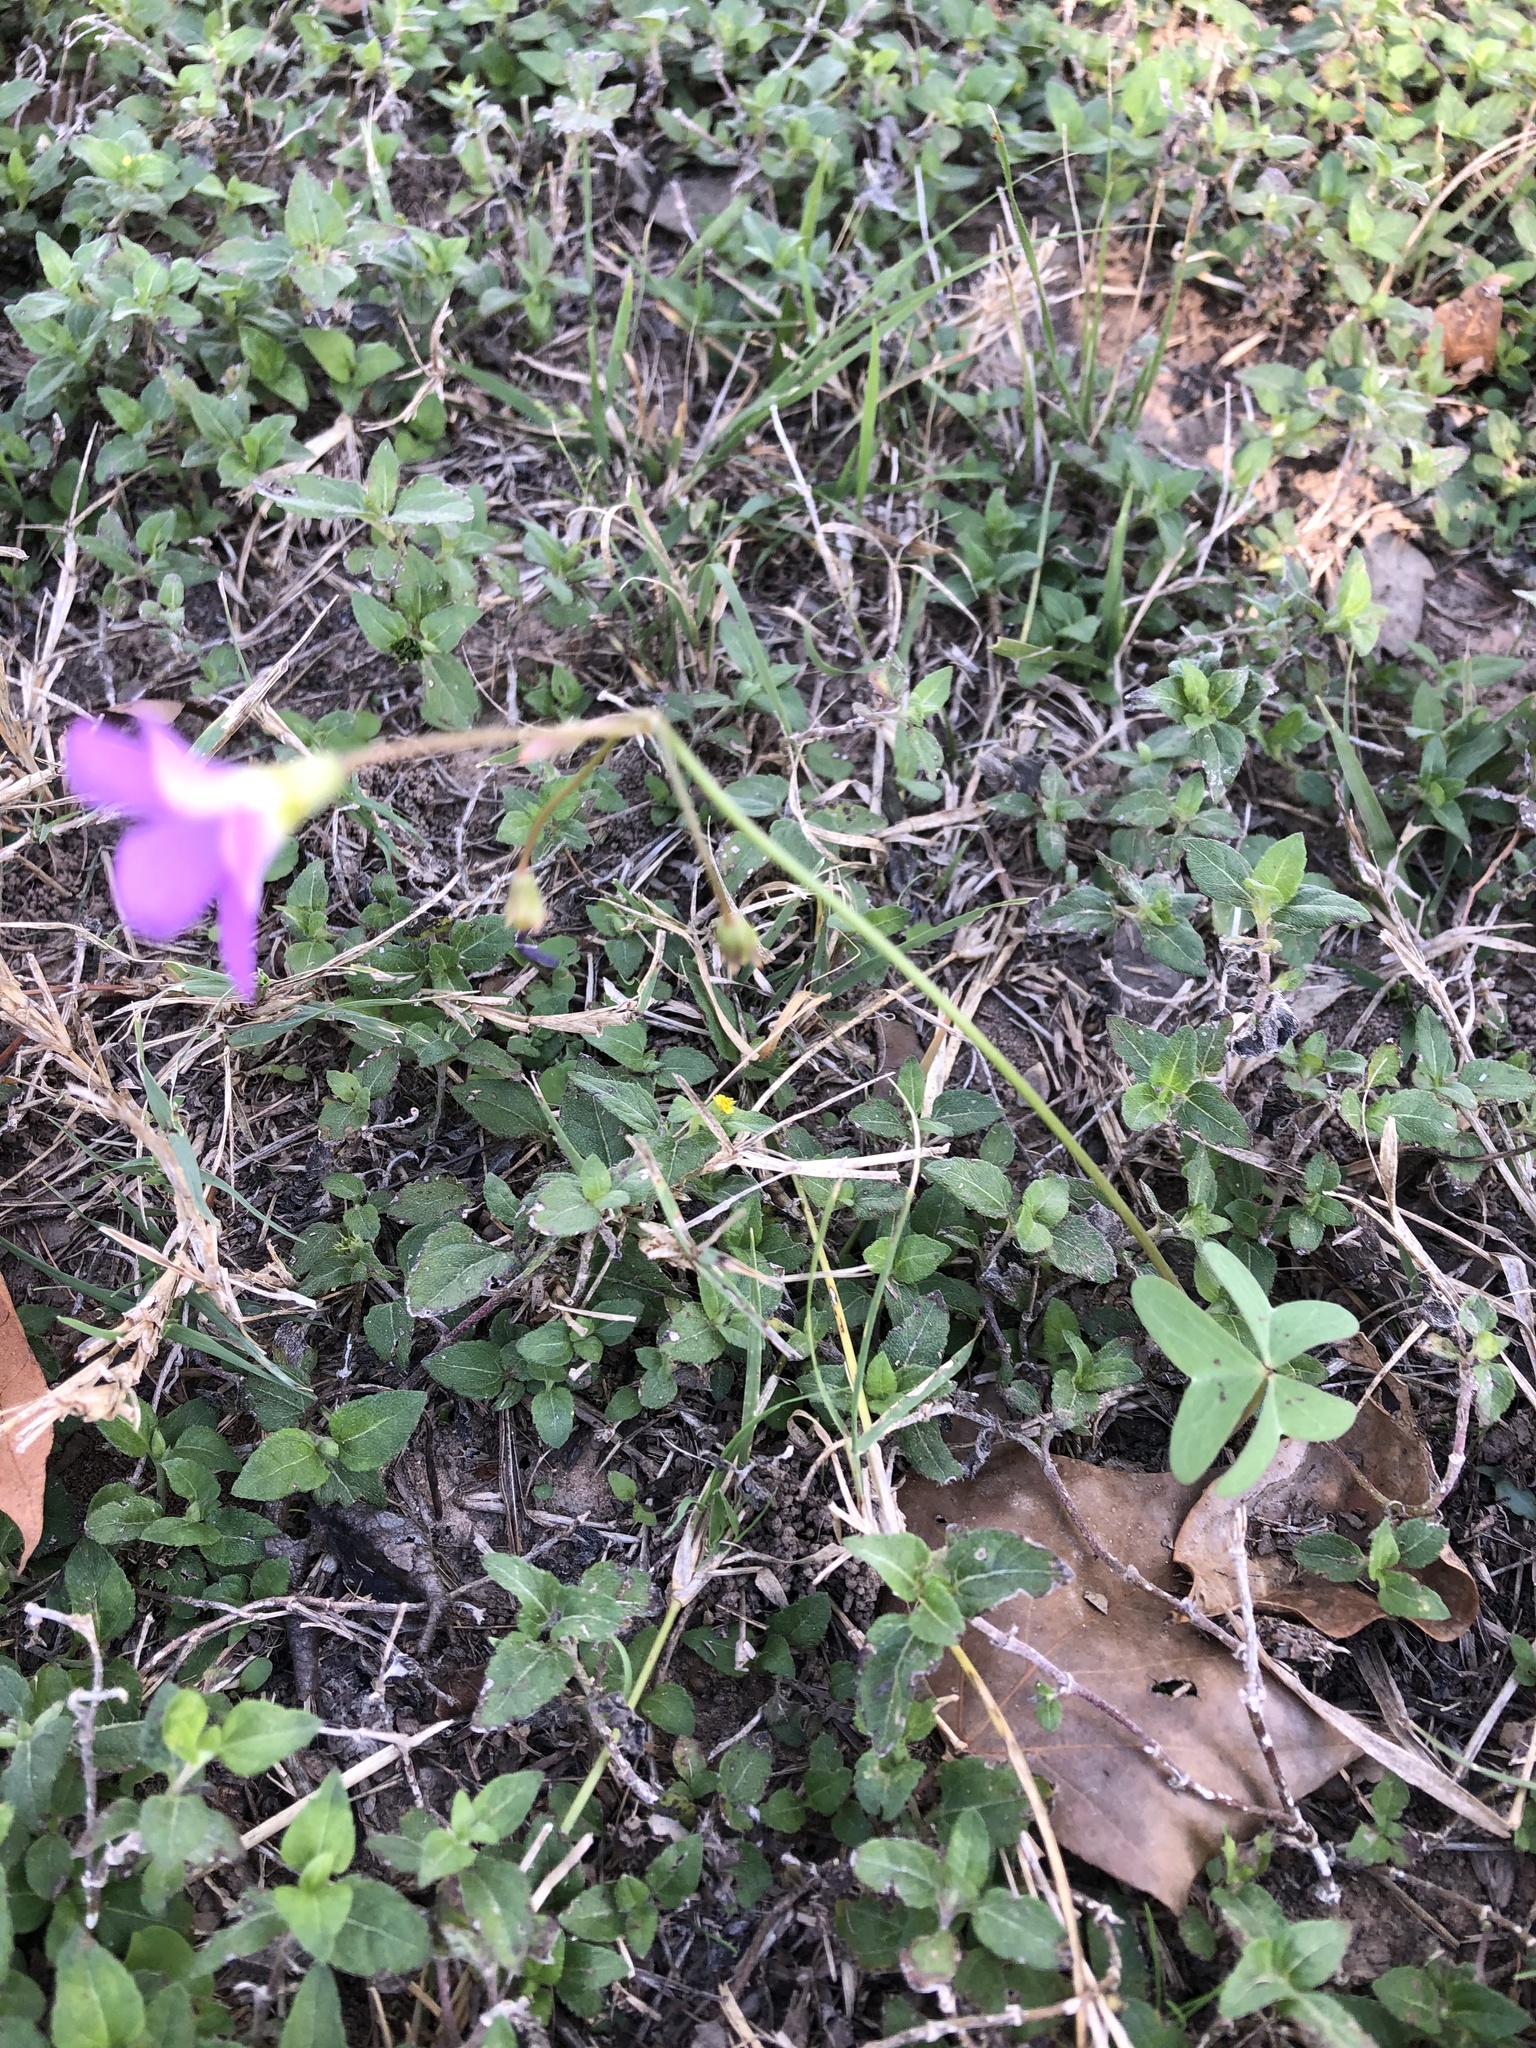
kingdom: Plantae
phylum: Tracheophyta
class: Magnoliopsida
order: Oxalidales
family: Oxalidaceae
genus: Oxalis
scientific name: Oxalis drummondii
